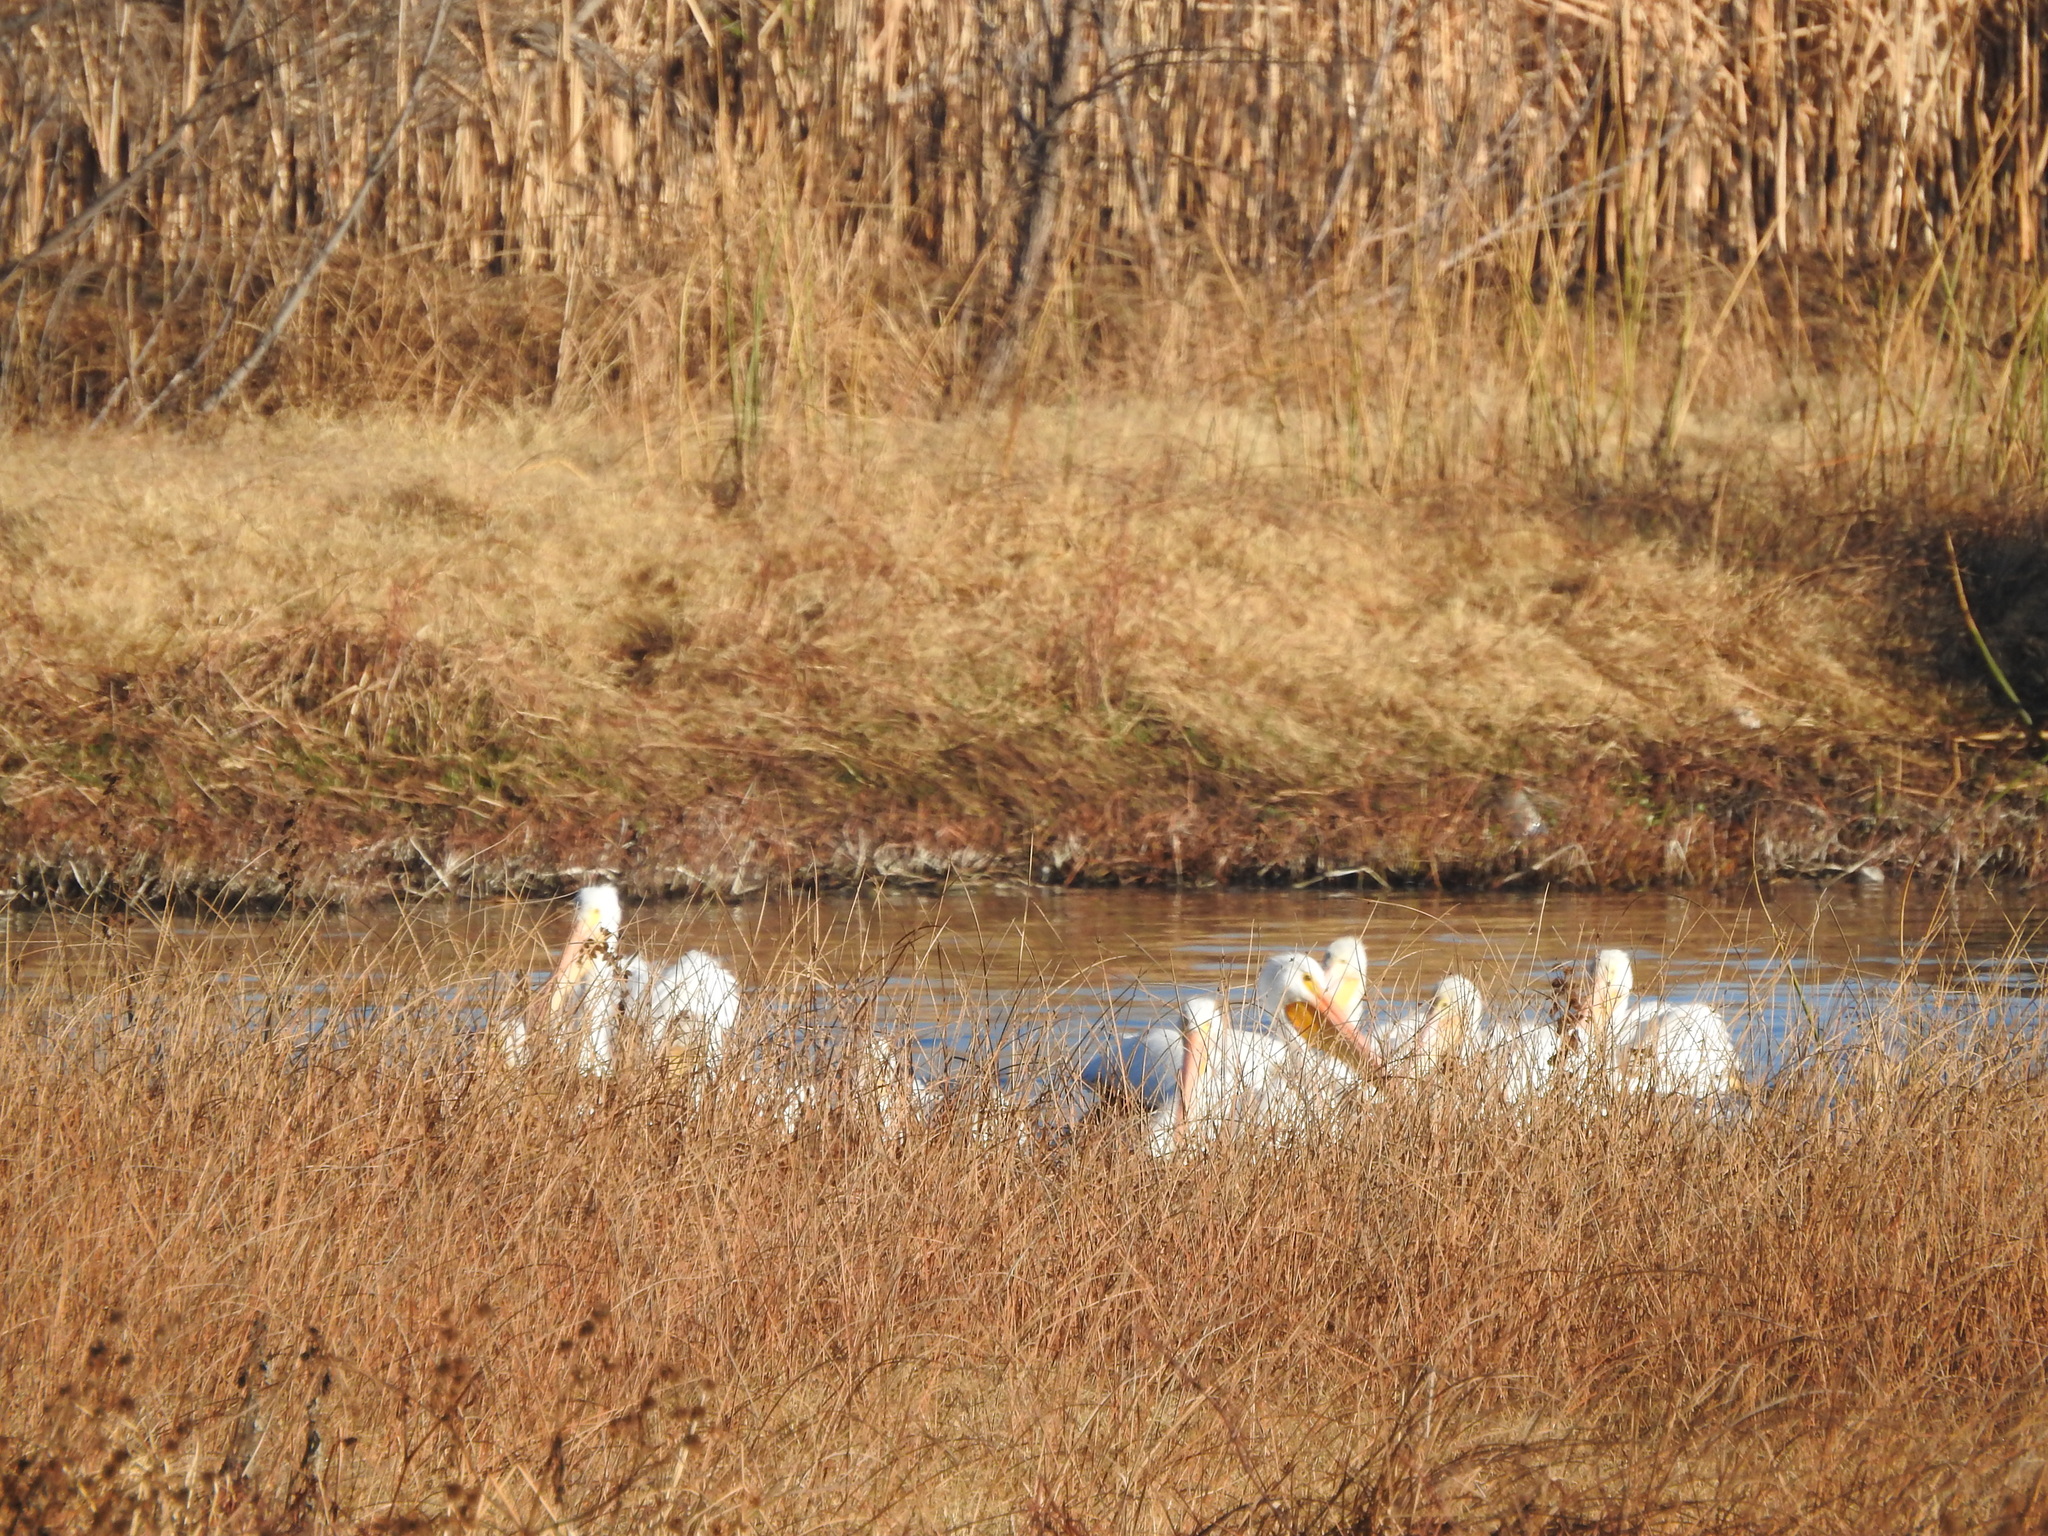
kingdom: Animalia
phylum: Chordata
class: Aves
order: Pelecaniformes
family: Pelecanidae
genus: Pelecanus
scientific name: Pelecanus erythrorhynchos
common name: American white pelican
